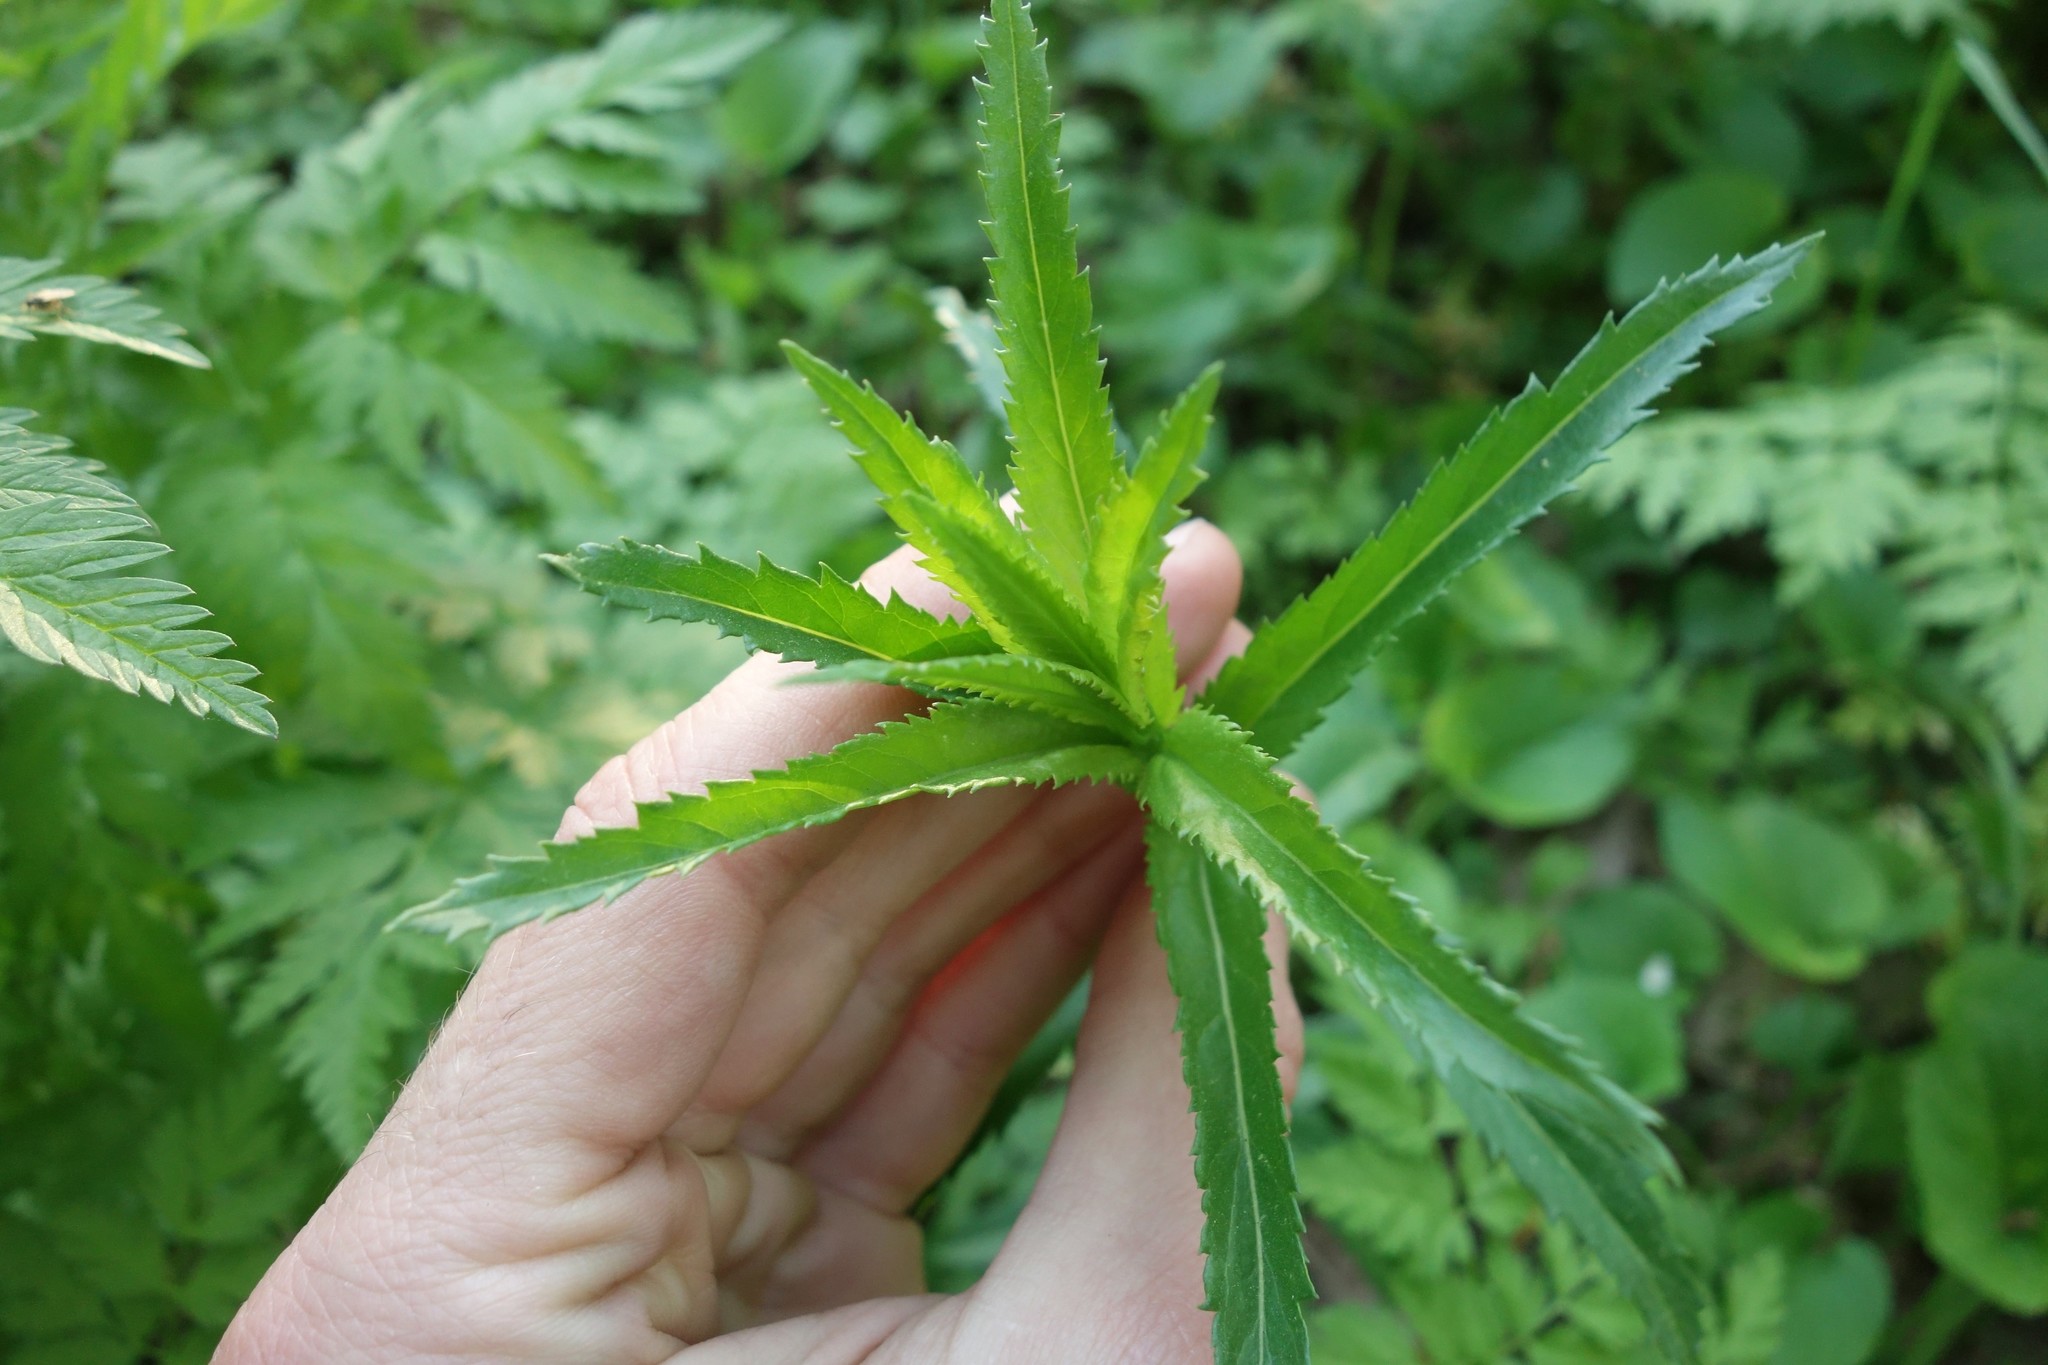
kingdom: Plantae
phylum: Tracheophyta
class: Magnoliopsida
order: Lamiales
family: Plantaginaceae
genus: Veronica
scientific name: Veronica longifolia
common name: Garden speedwell
